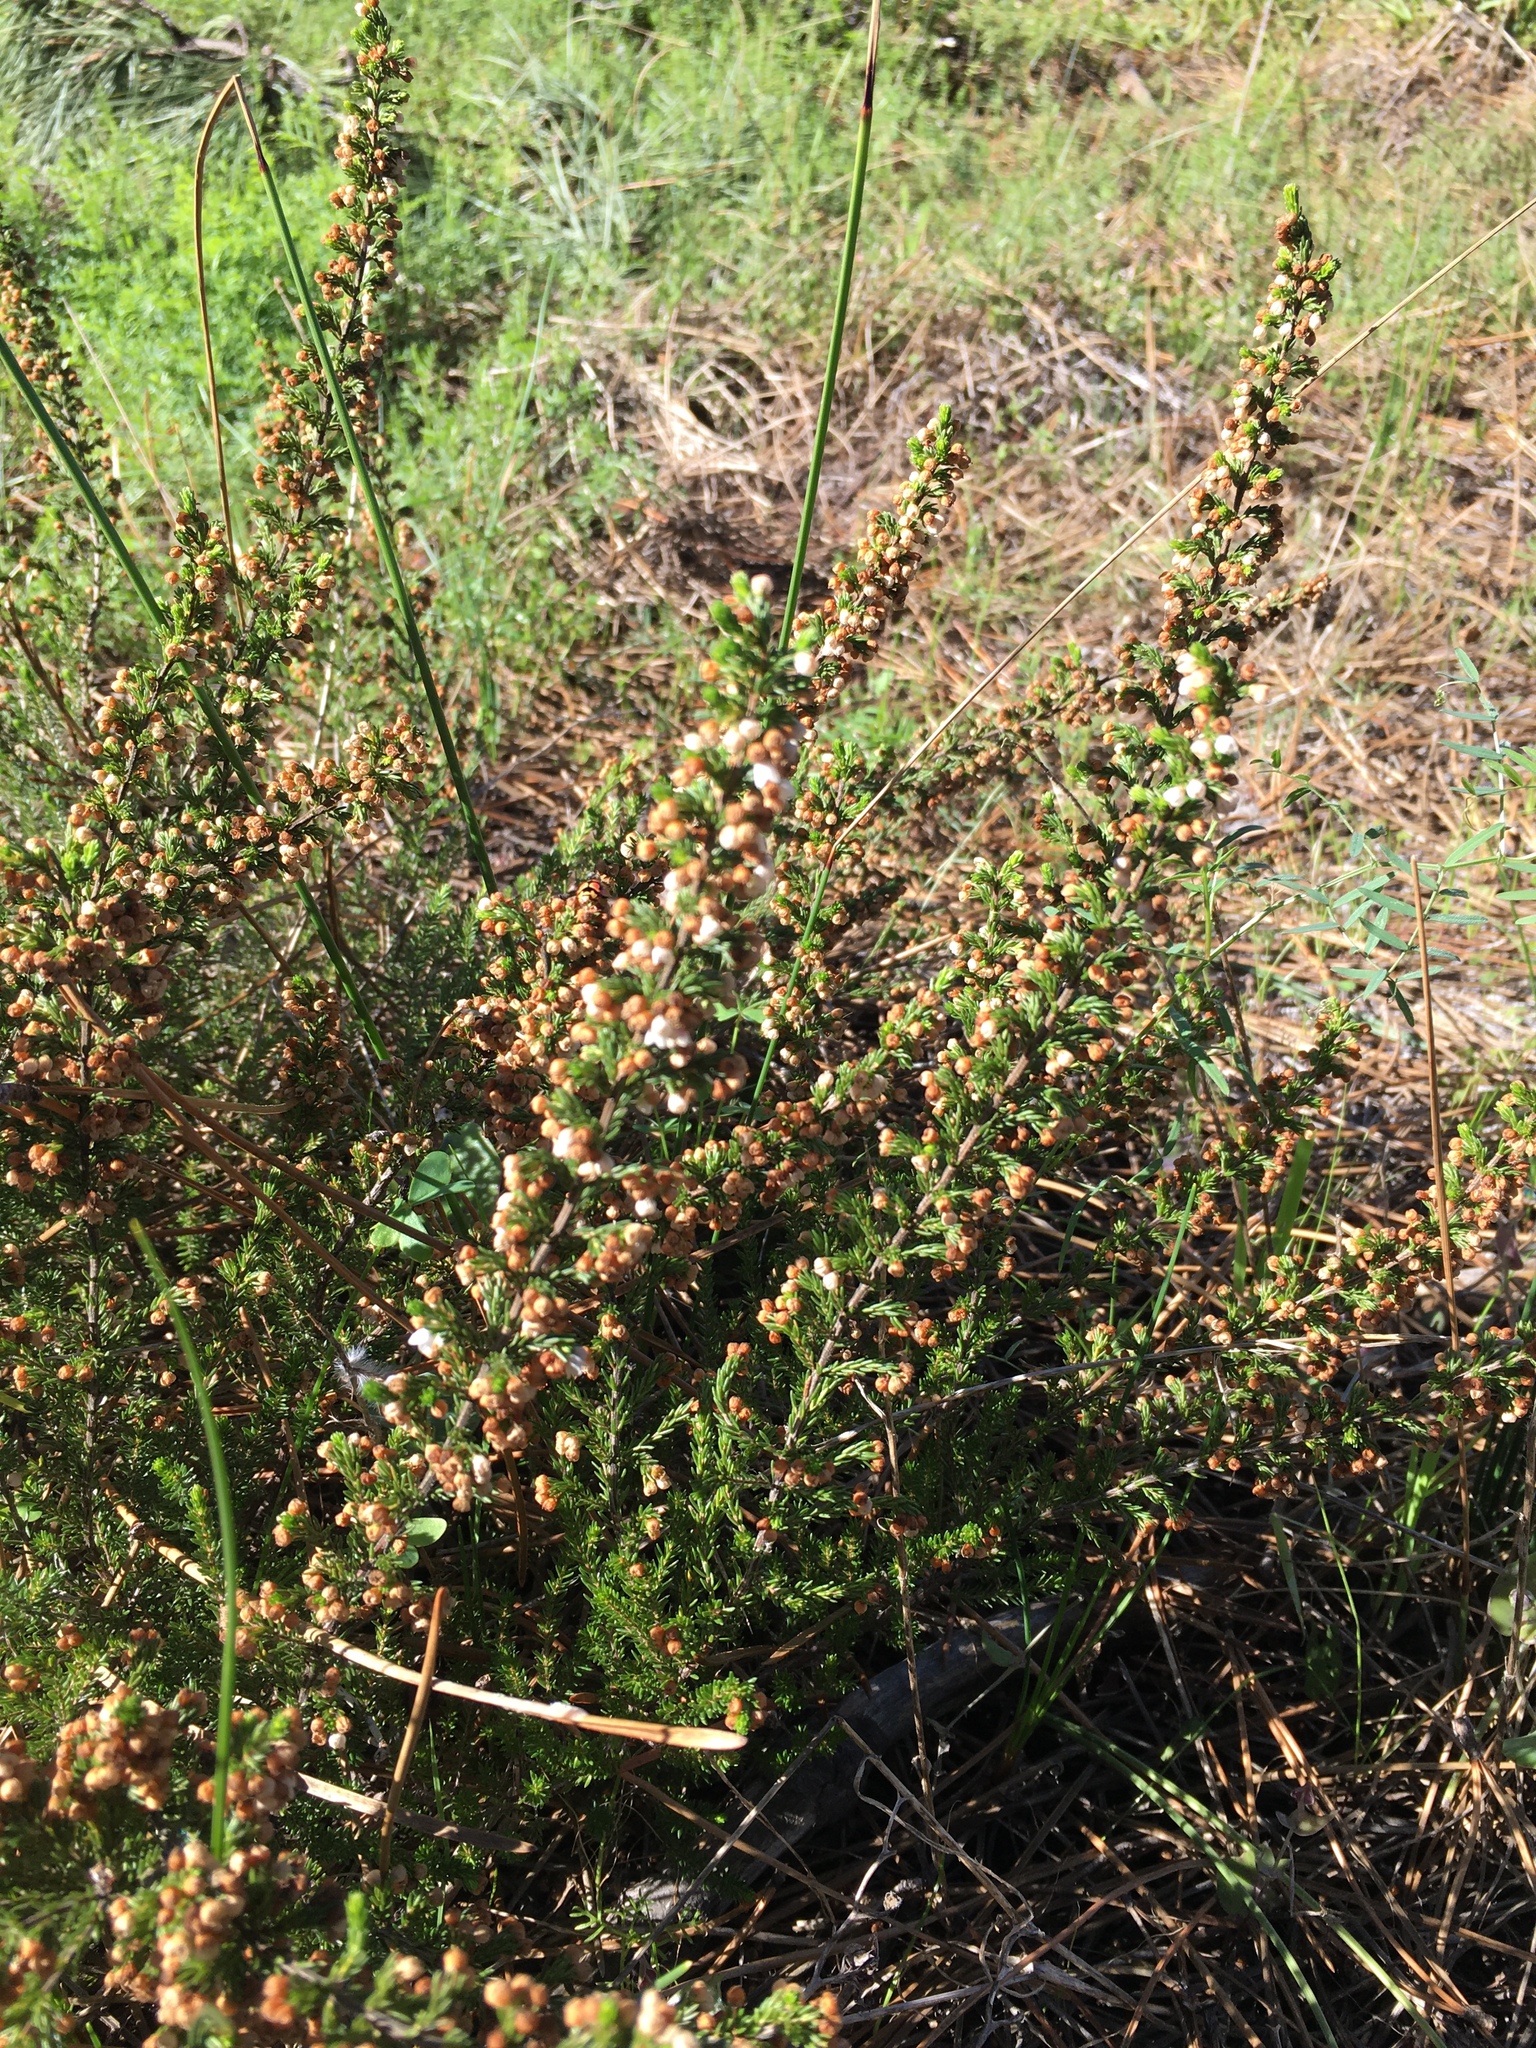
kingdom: Plantae
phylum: Tracheophyta
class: Magnoliopsida
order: Ericales
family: Ericaceae
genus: Erica
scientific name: Erica subdivaricata
